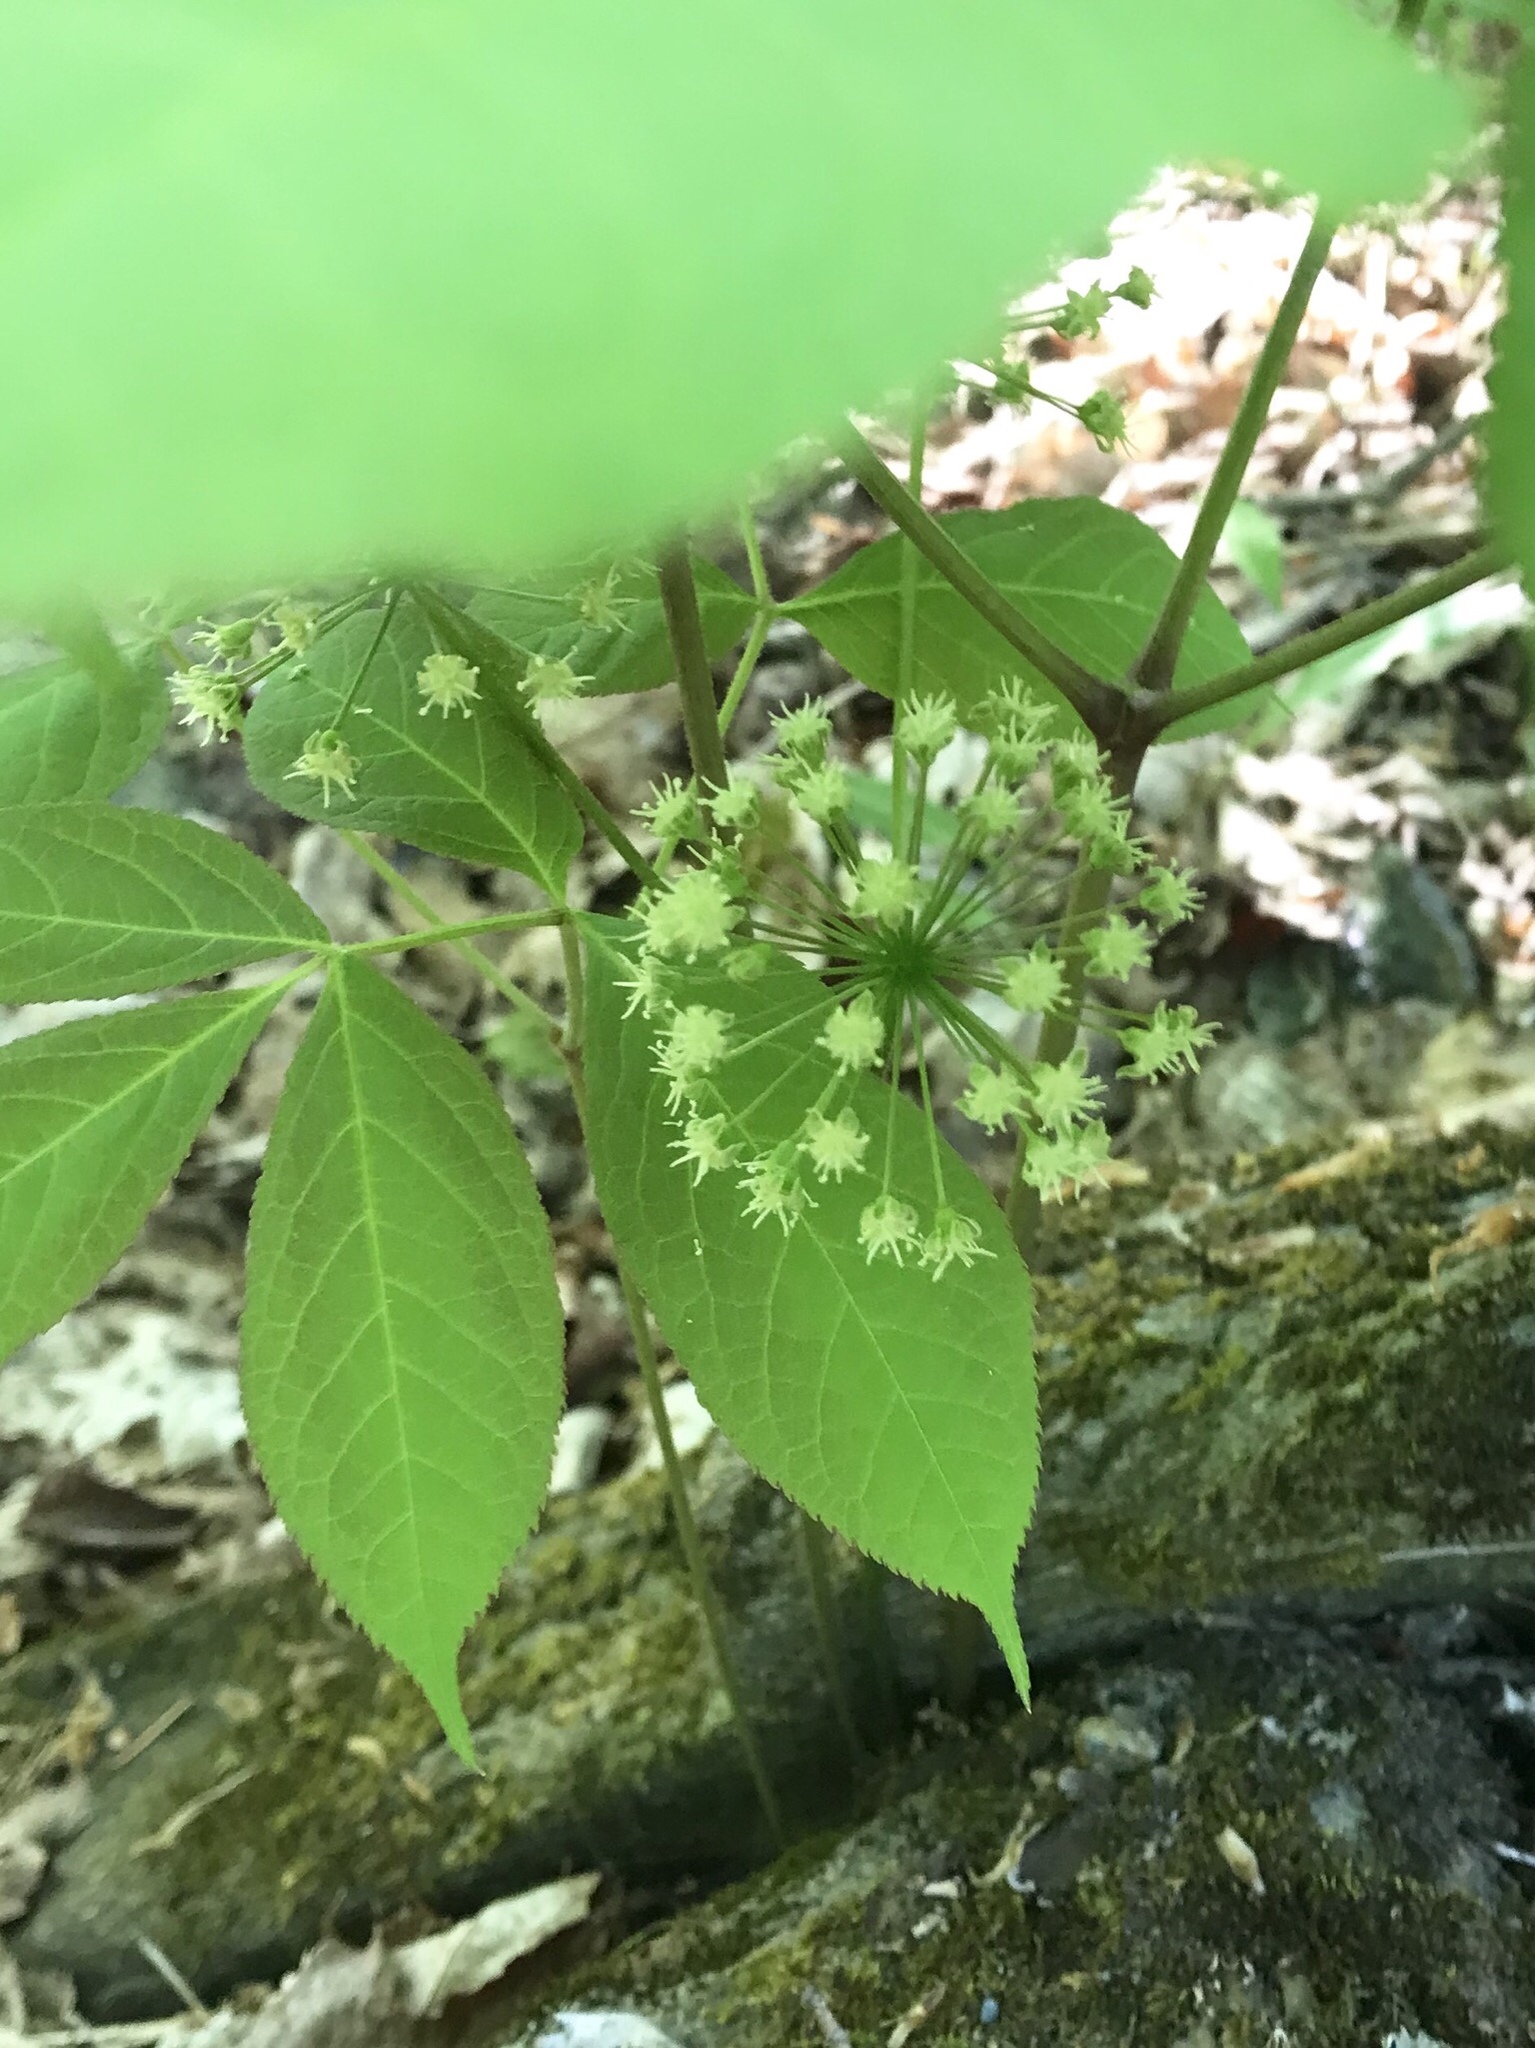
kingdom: Plantae
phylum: Tracheophyta
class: Magnoliopsida
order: Apiales
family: Araliaceae
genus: Aralia
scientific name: Aralia nudicaulis
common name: Wild sarsaparilla
